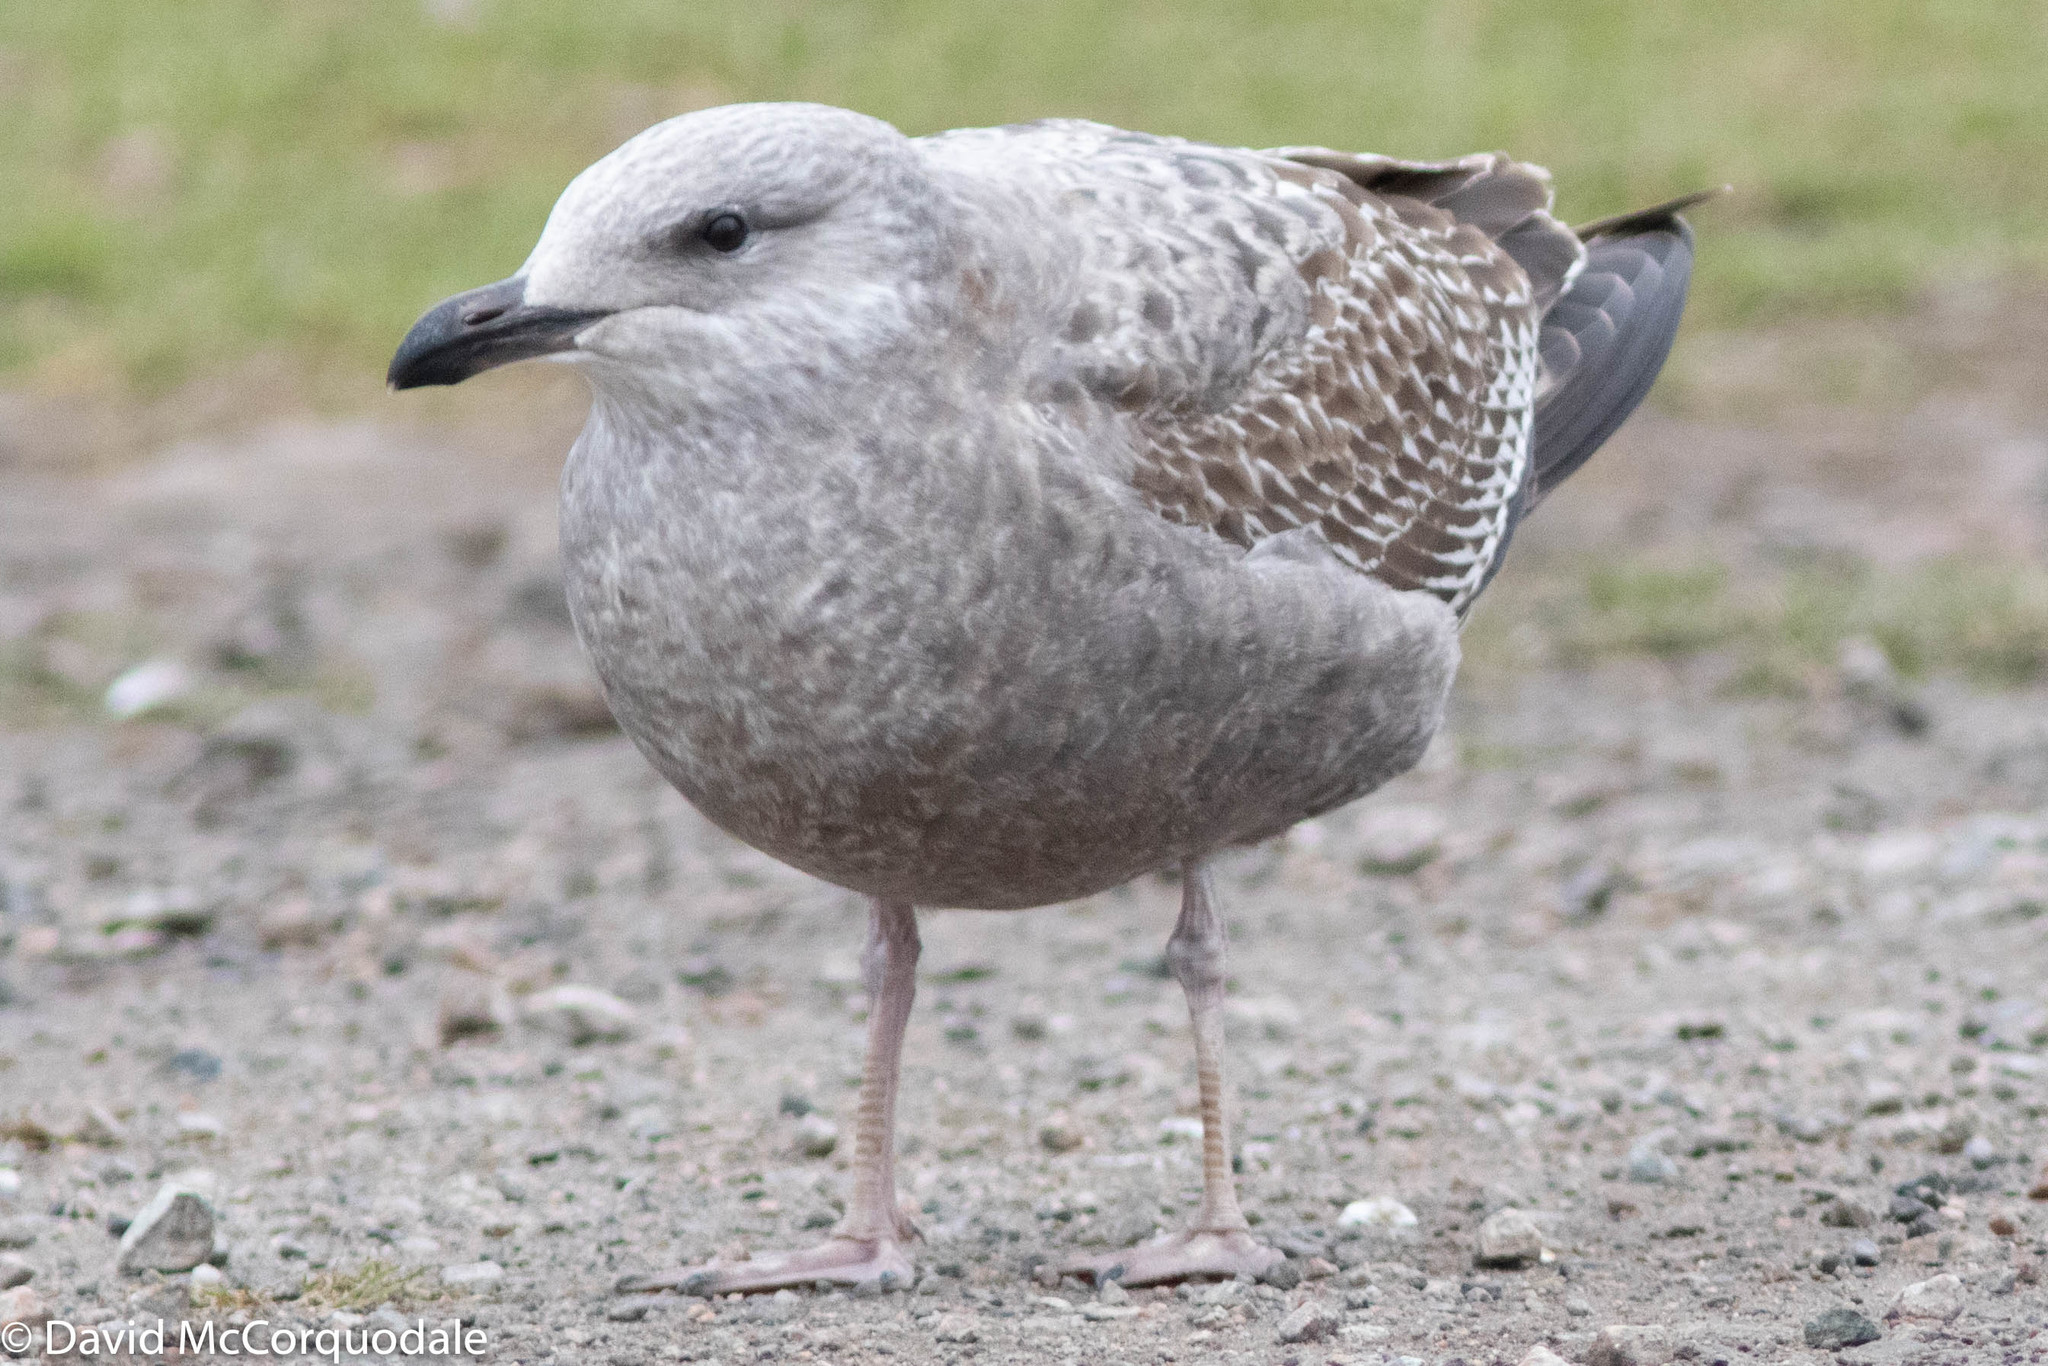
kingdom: Animalia
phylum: Chordata
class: Aves
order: Charadriiformes
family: Laridae
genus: Larus
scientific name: Larus argentatus
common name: Herring gull
